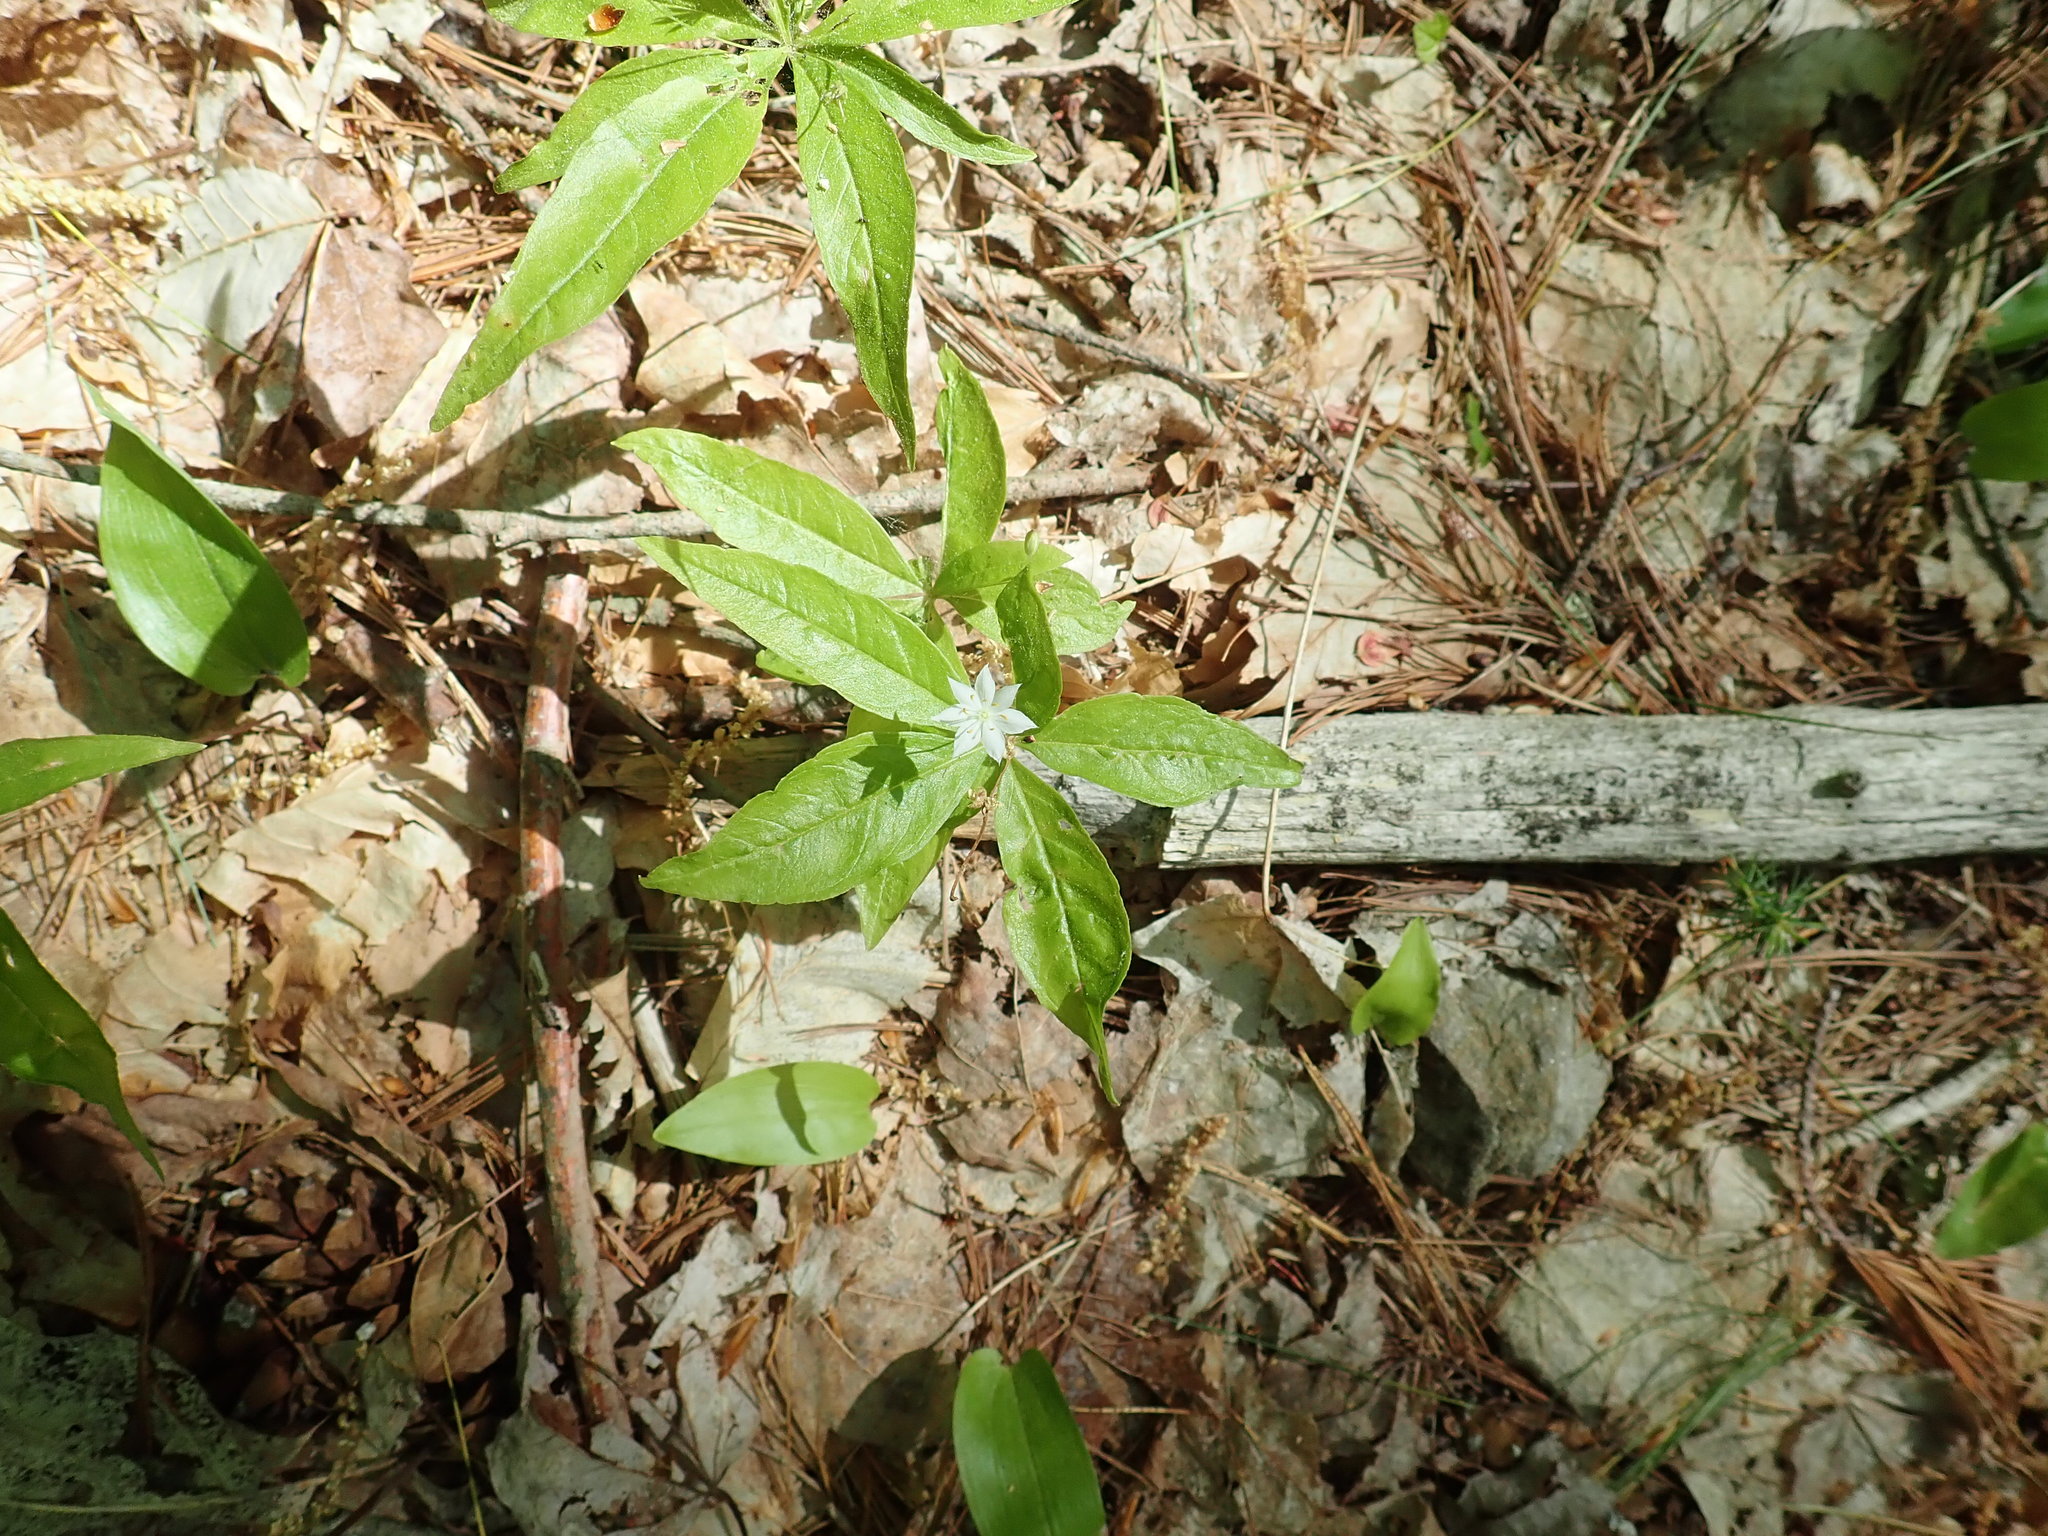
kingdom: Plantae
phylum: Tracheophyta
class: Magnoliopsida
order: Ericales
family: Primulaceae
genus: Lysimachia
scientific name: Lysimachia borealis
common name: American starflower
